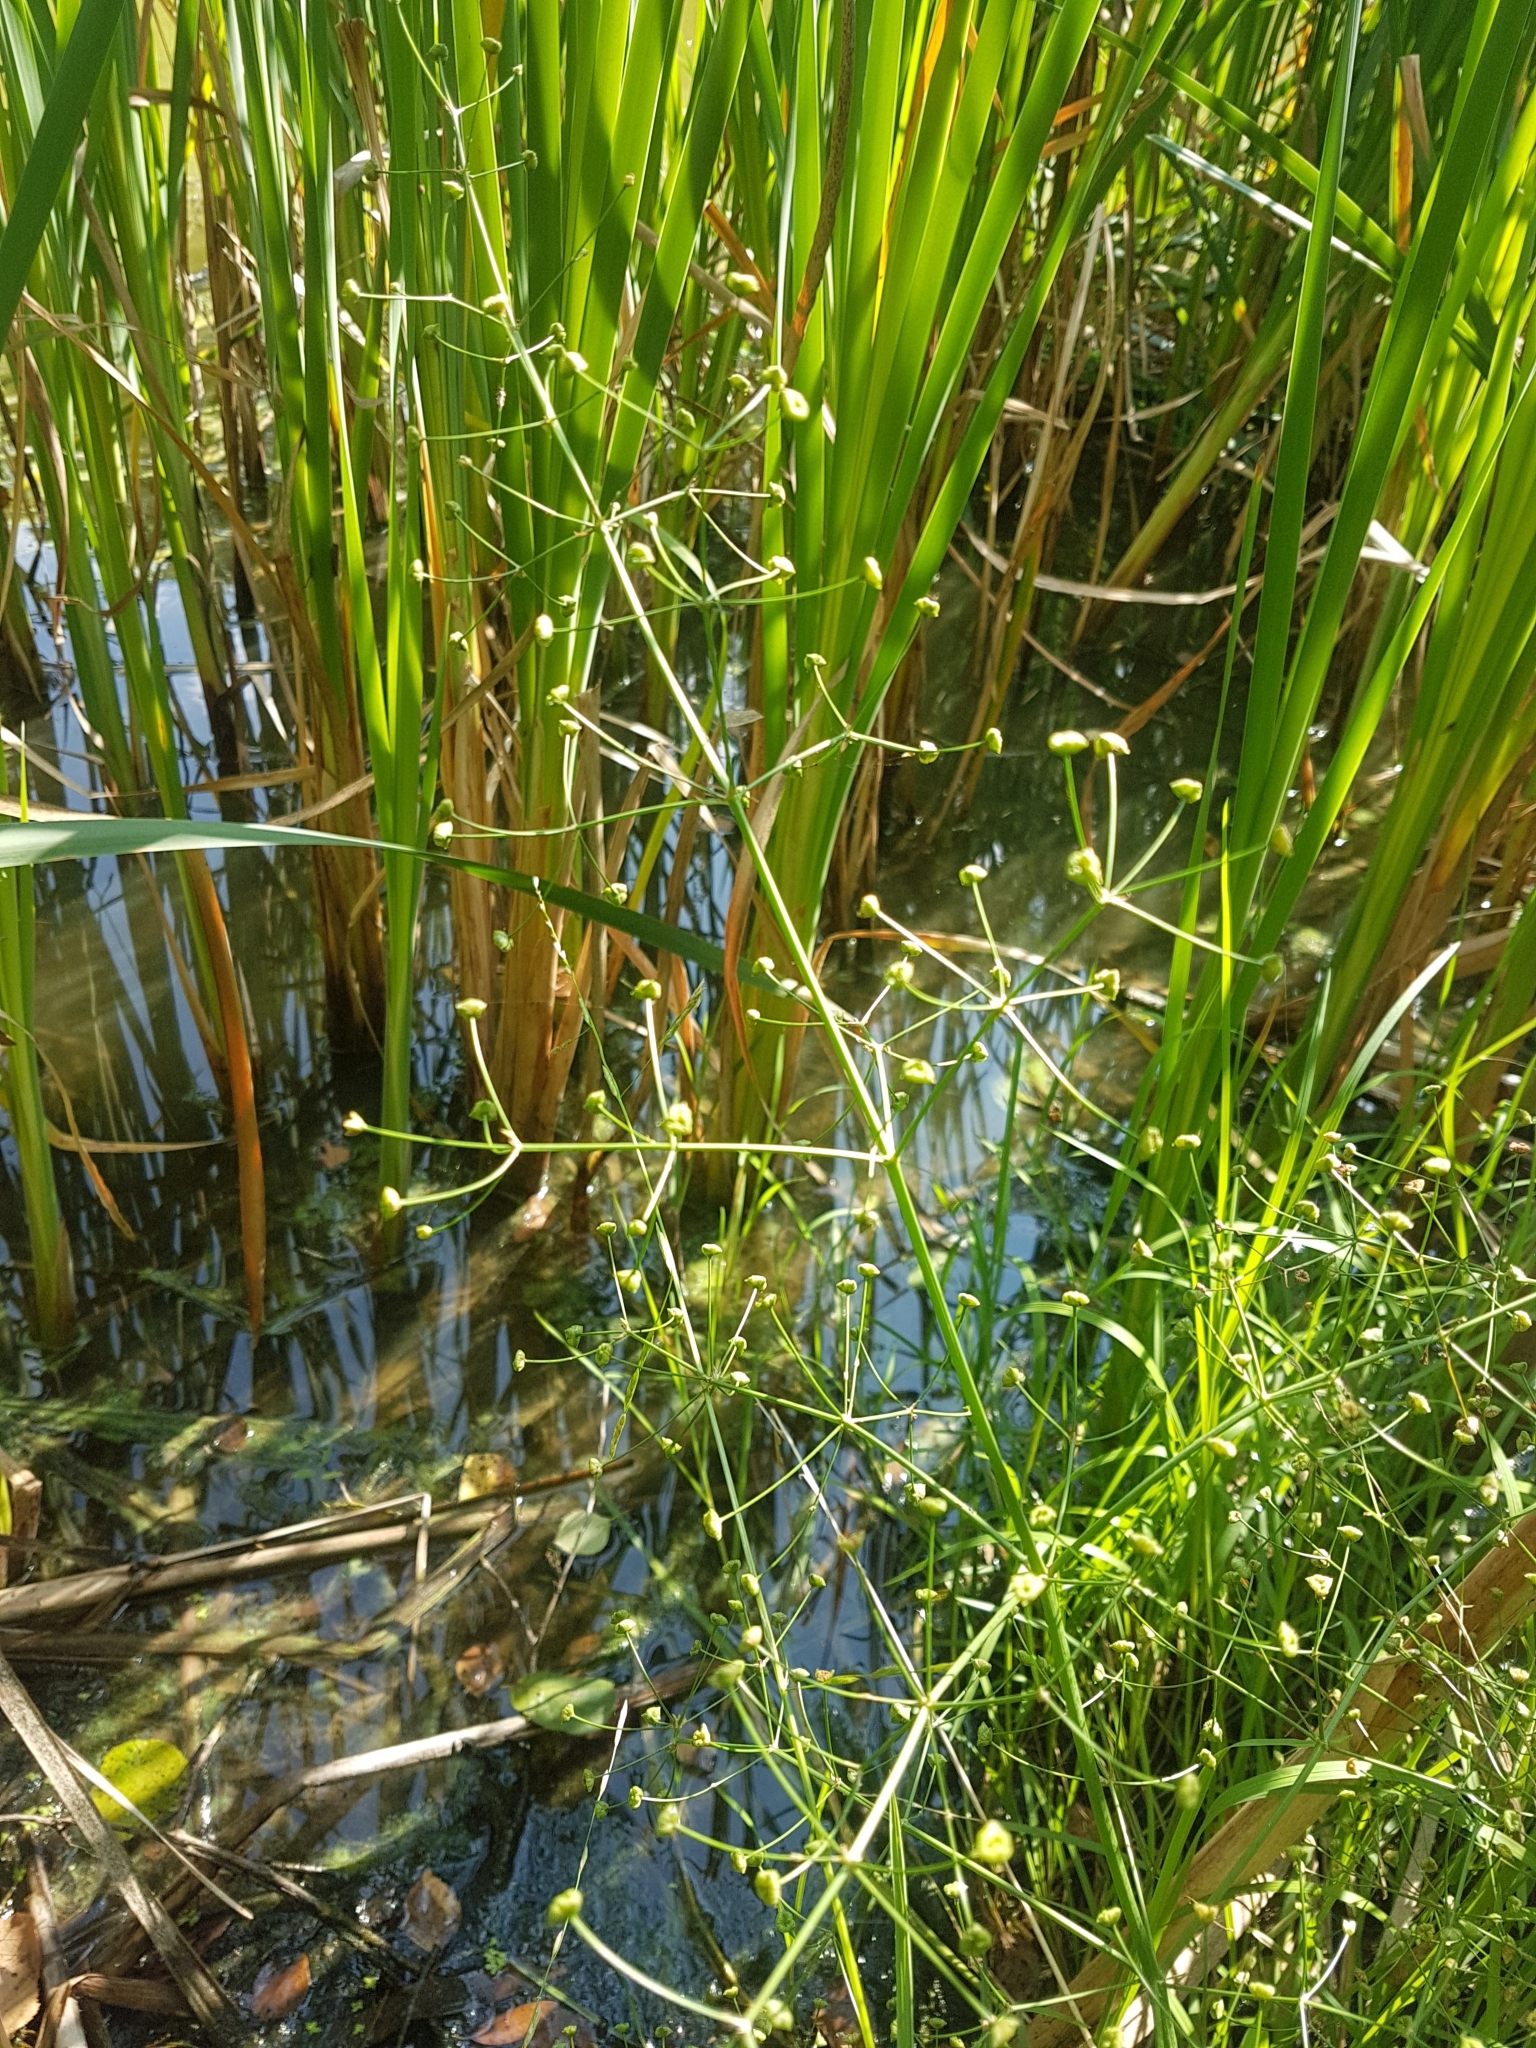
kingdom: Plantae
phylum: Tracheophyta
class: Liliopsida
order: Alismatales
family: Alismataceae
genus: Alisma
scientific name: Alisma plantago-aquatica
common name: Water-plantain
